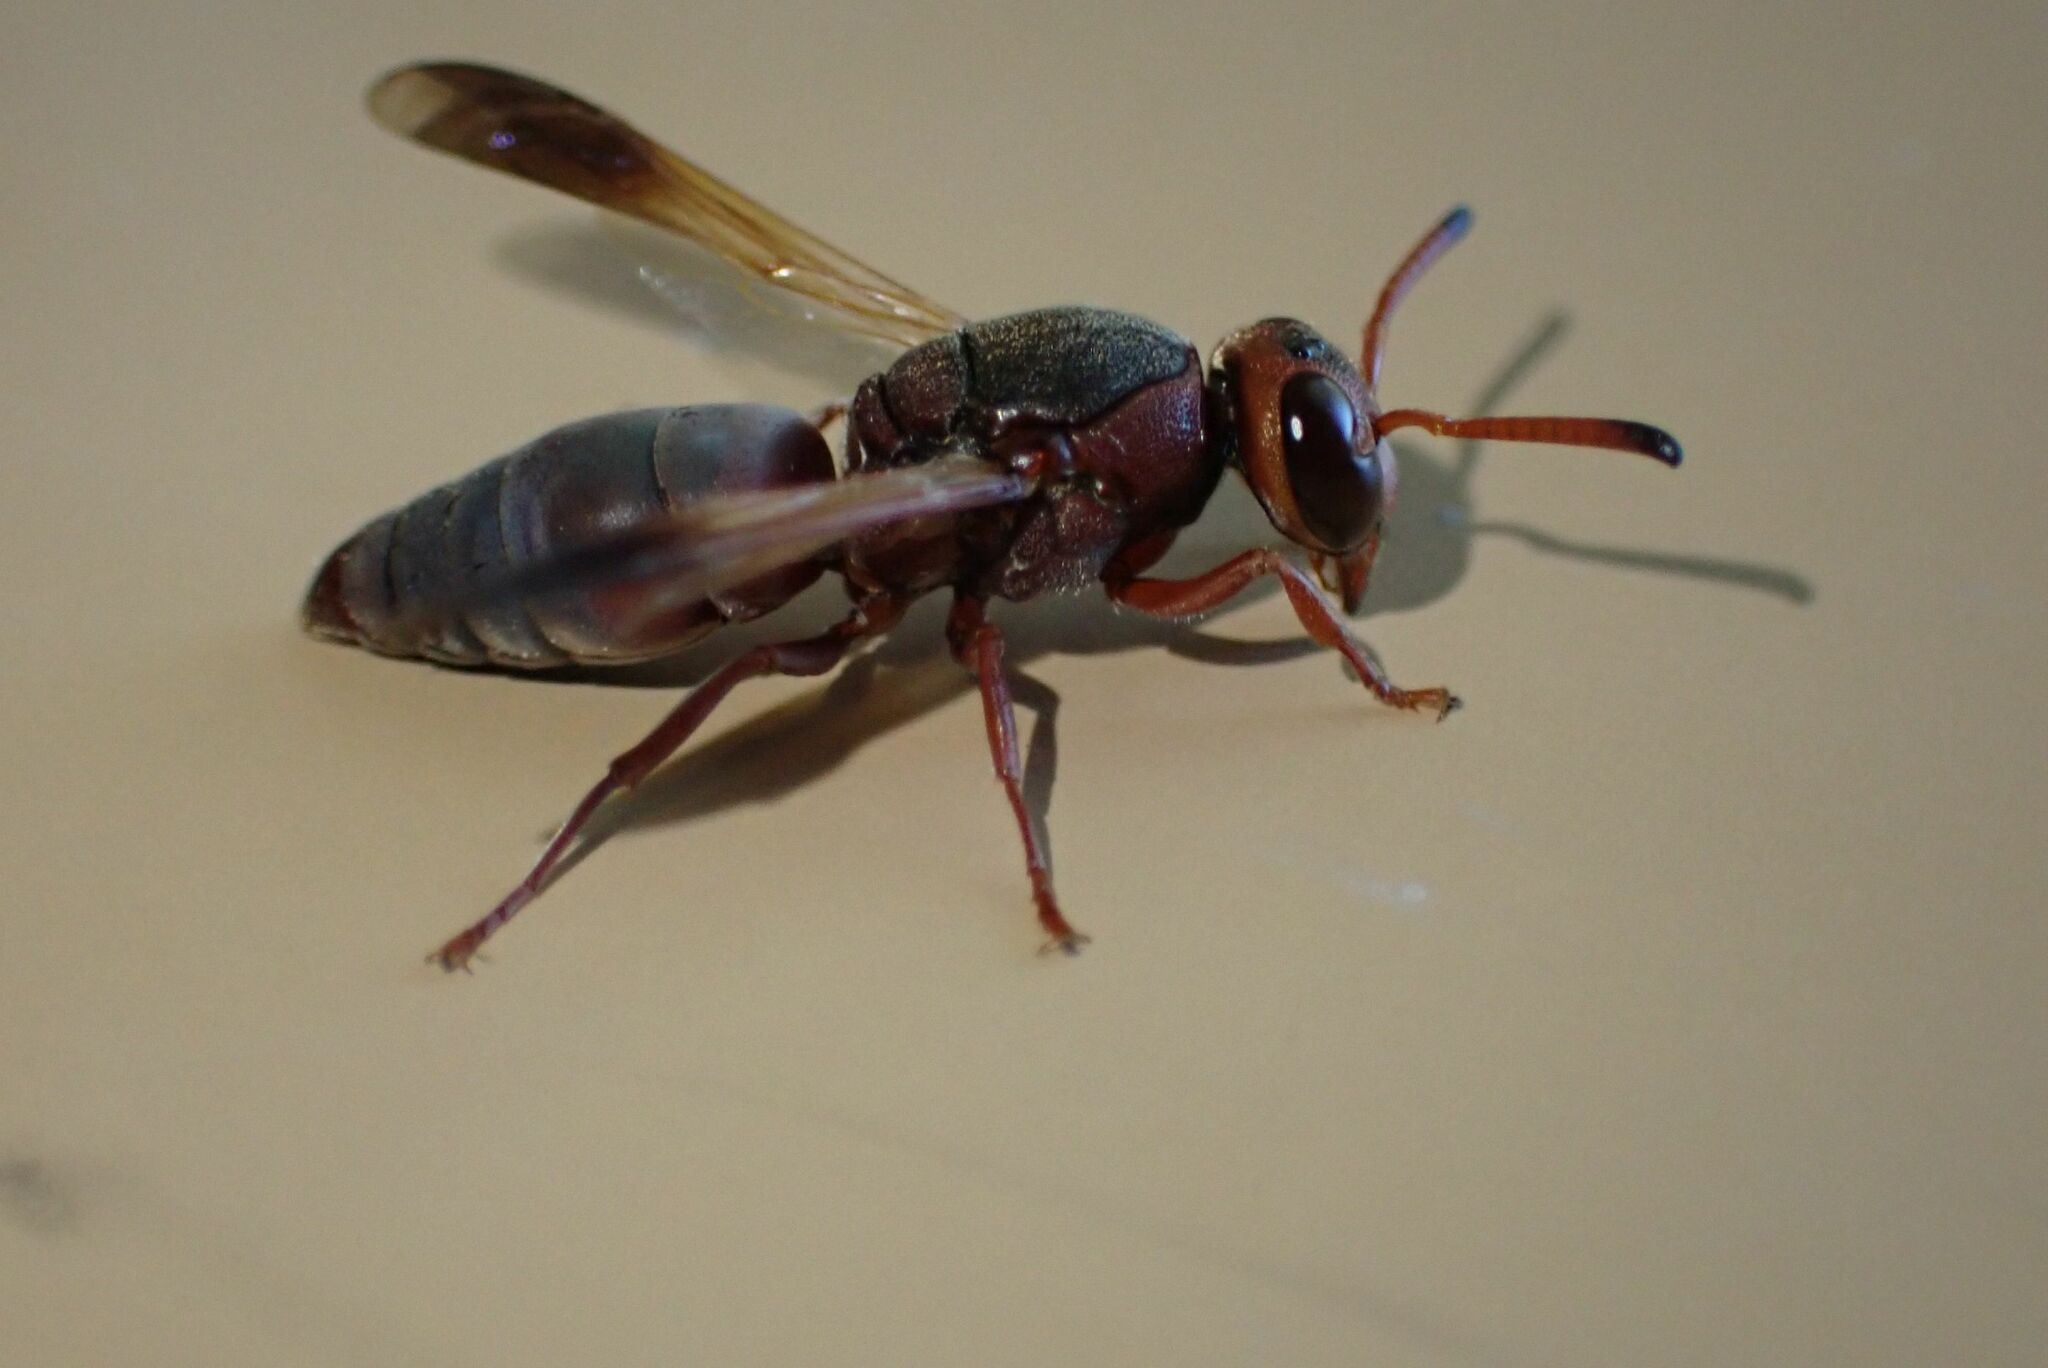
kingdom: Animalia
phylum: Arthropoda
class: Insecta
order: Hymenoptera
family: Eumenidae
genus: Proepipona
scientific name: Proepipona
